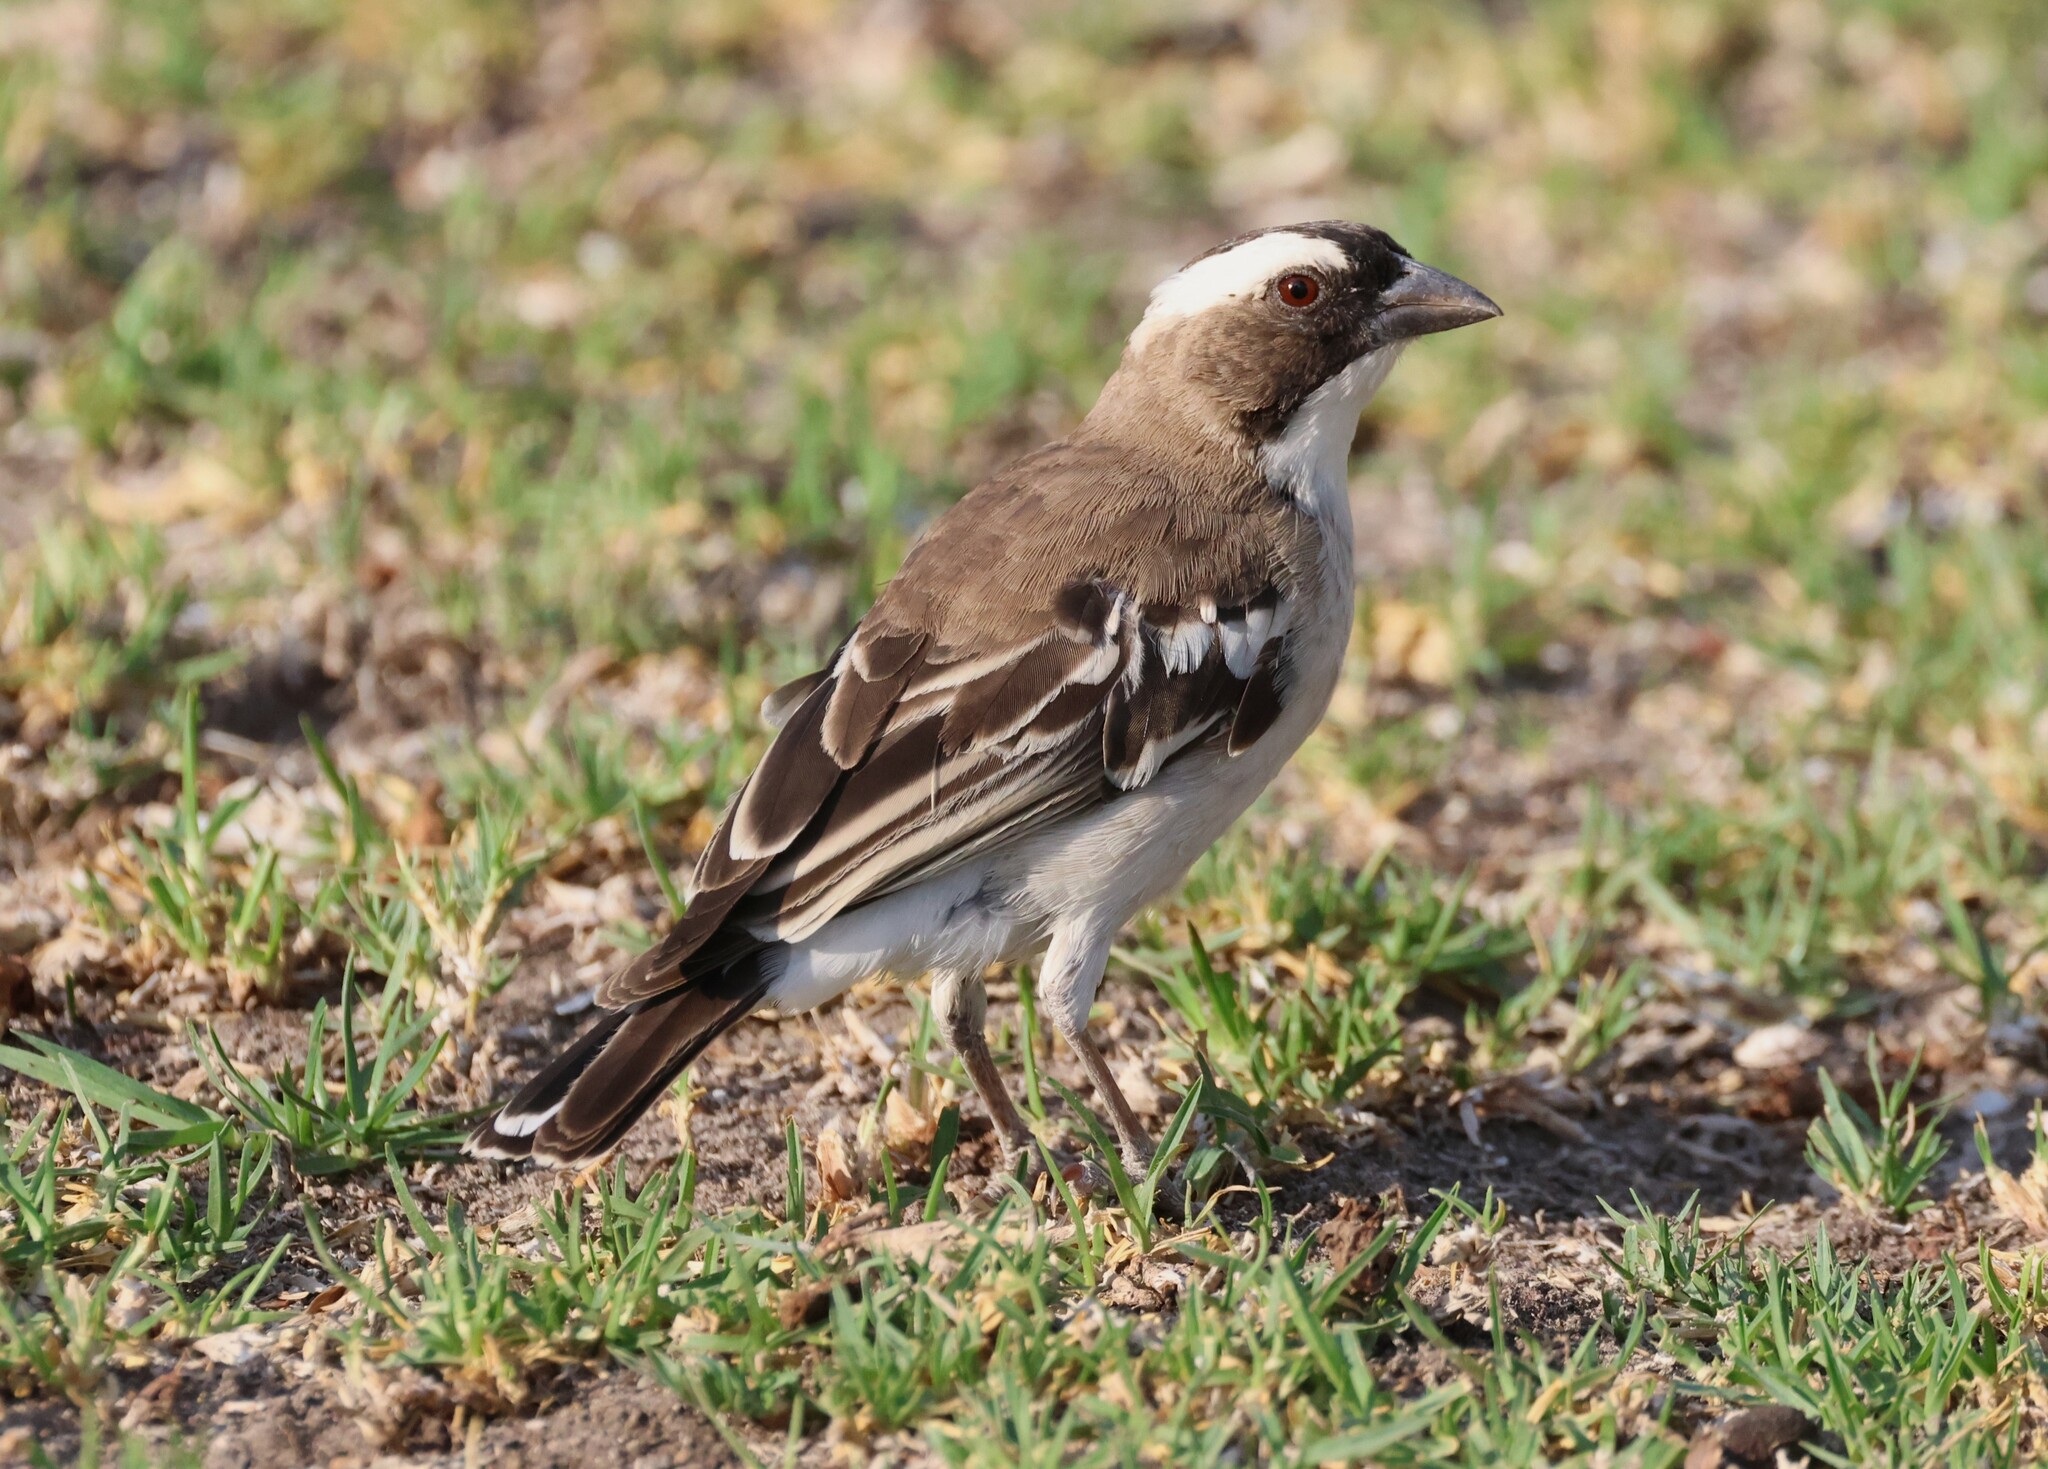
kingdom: Animalia
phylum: Chordata
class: Aves
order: Passeriformes
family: Passeridae
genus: Plocepasser
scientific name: Plocepasser mahali
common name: White-browed sparrow-weaver
